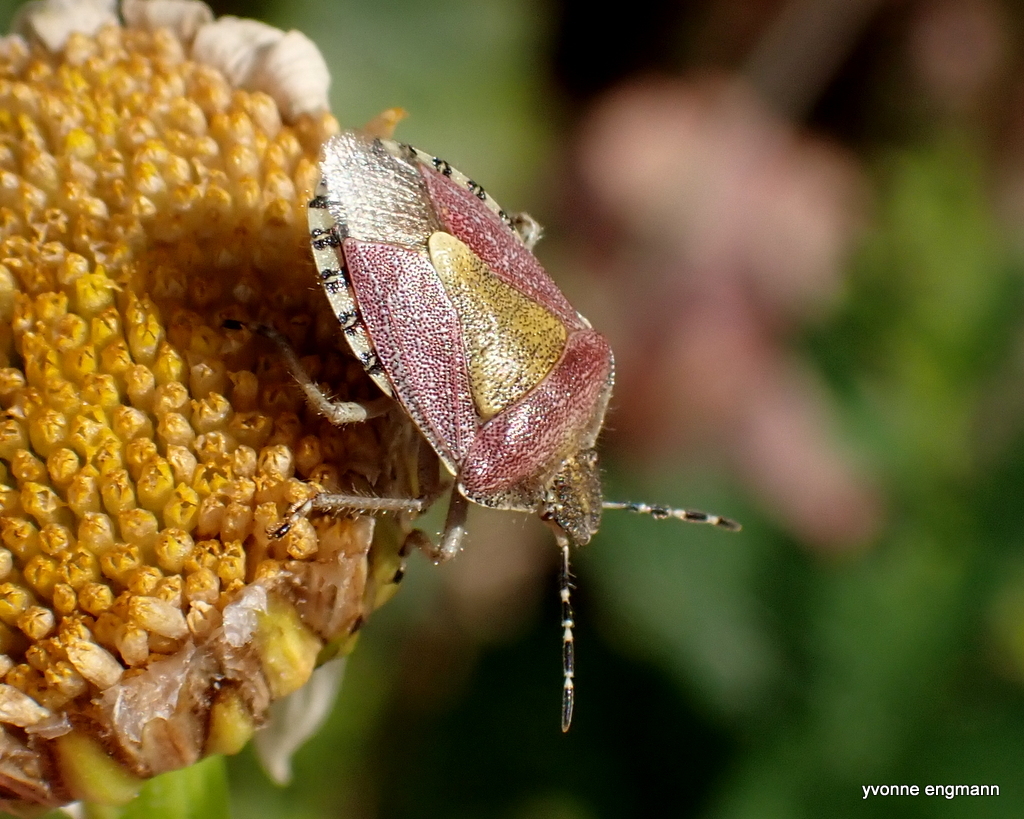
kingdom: Animalia
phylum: Arthropoda
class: Insecta
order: Hemiptera
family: Pentatomidae
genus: Dolycoris
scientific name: Dolycoris baccarum
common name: Sloe bug
